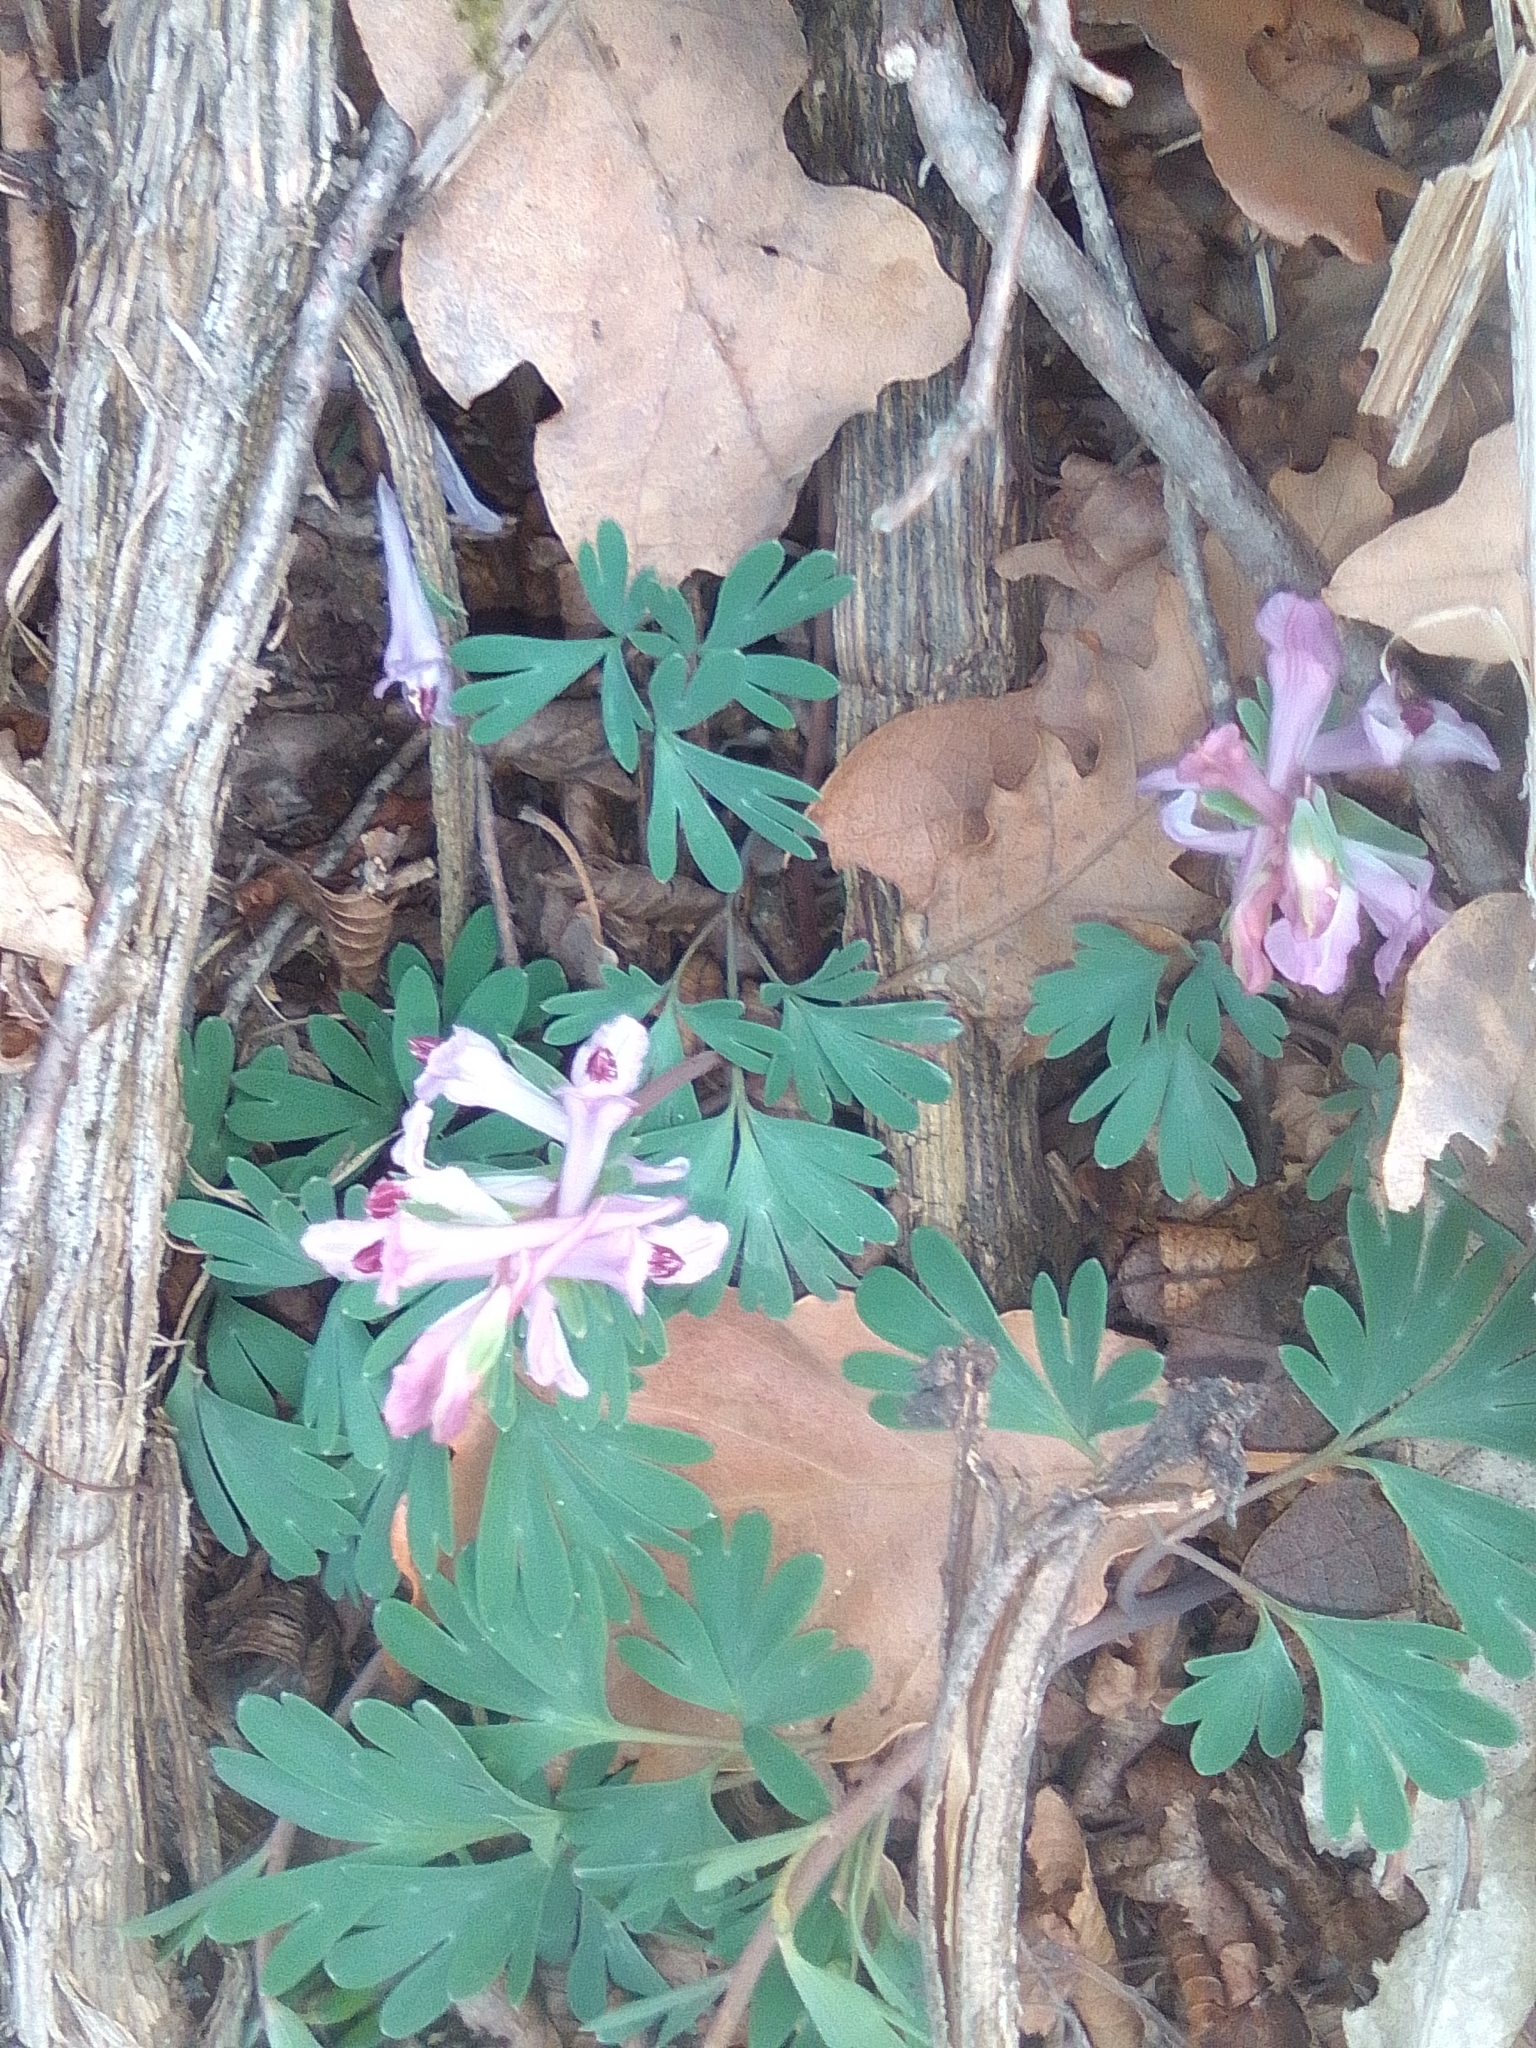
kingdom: Plantae
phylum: Tracheophyta
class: Magnoliopsida
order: Ranunculales
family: Papaveraceae
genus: Corydalis
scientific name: Corydalis paczoskii
